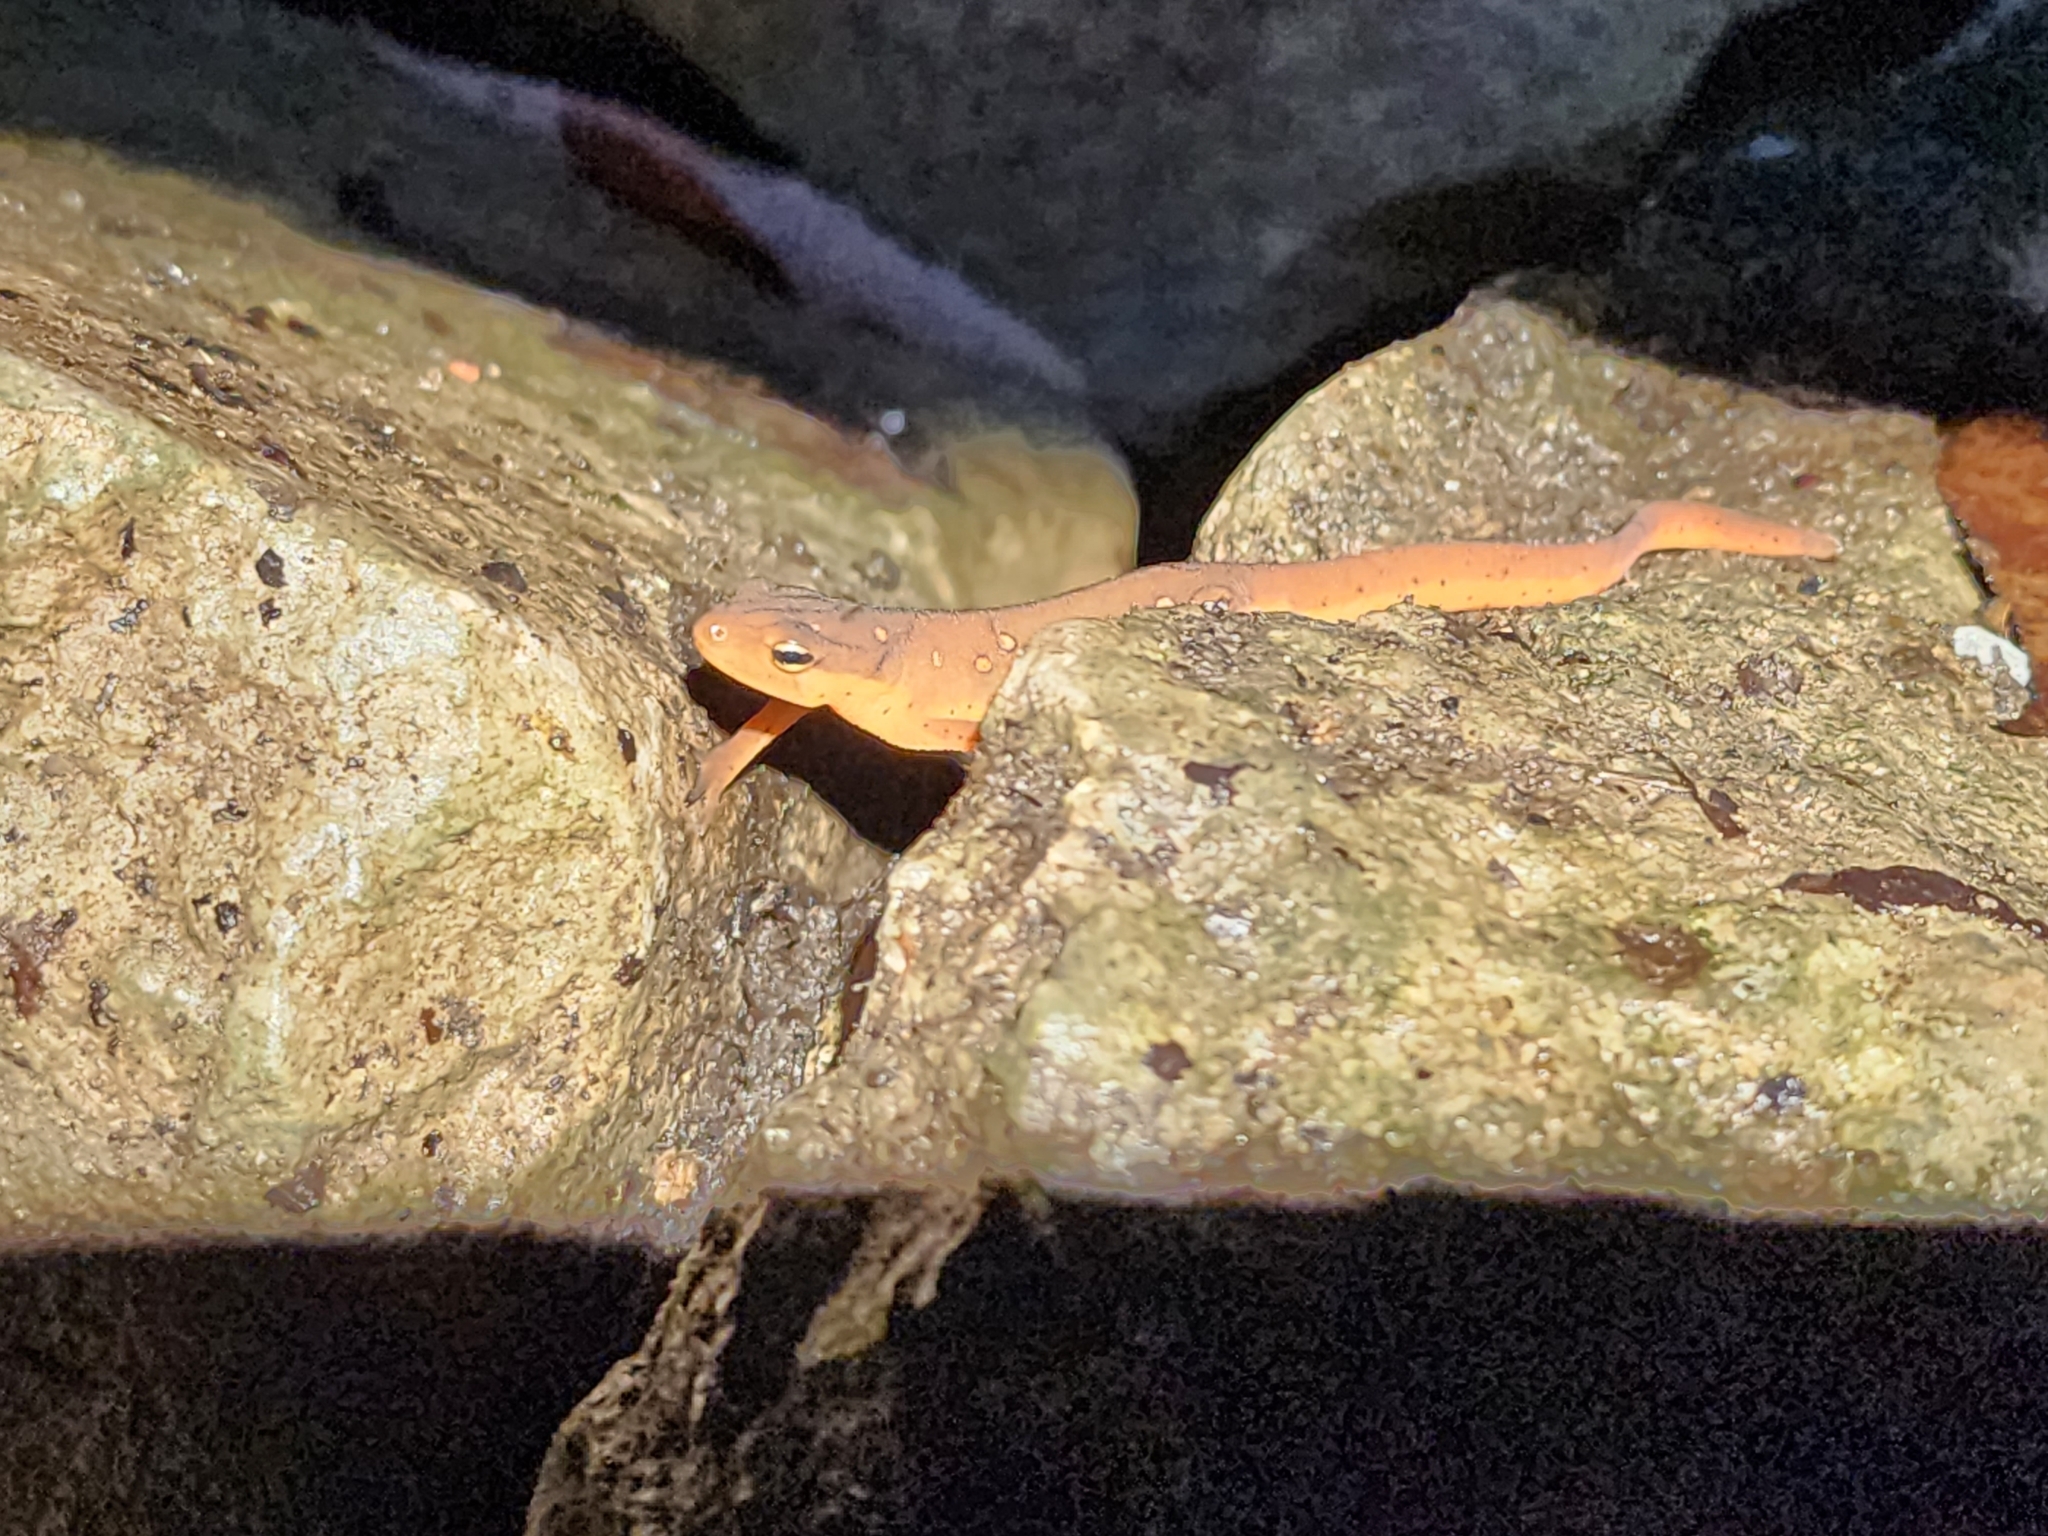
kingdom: Animalia
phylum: Chordata
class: Amphibia
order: Caudata
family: Salamandridae
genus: Notophthalmus
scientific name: Notophthalmus viridescens
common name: Eastern newt
